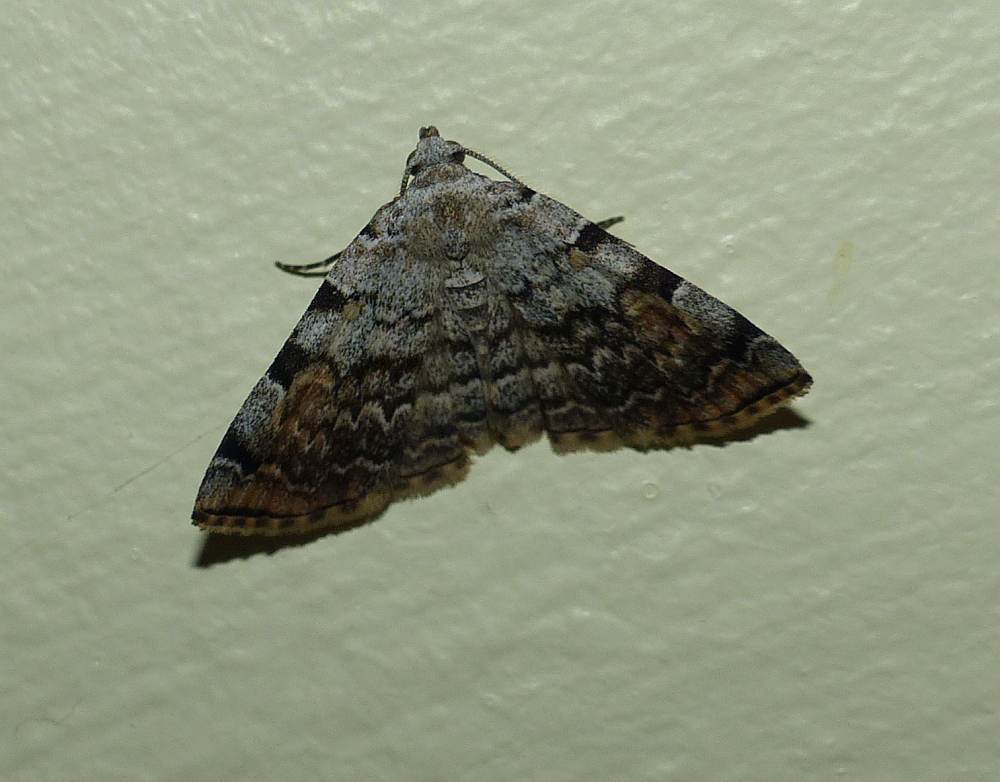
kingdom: Animalia
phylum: Arthropoda
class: Insecta
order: Lepidoptera
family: Erebidae
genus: Idia
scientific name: Idia americalis
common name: American idia moth
